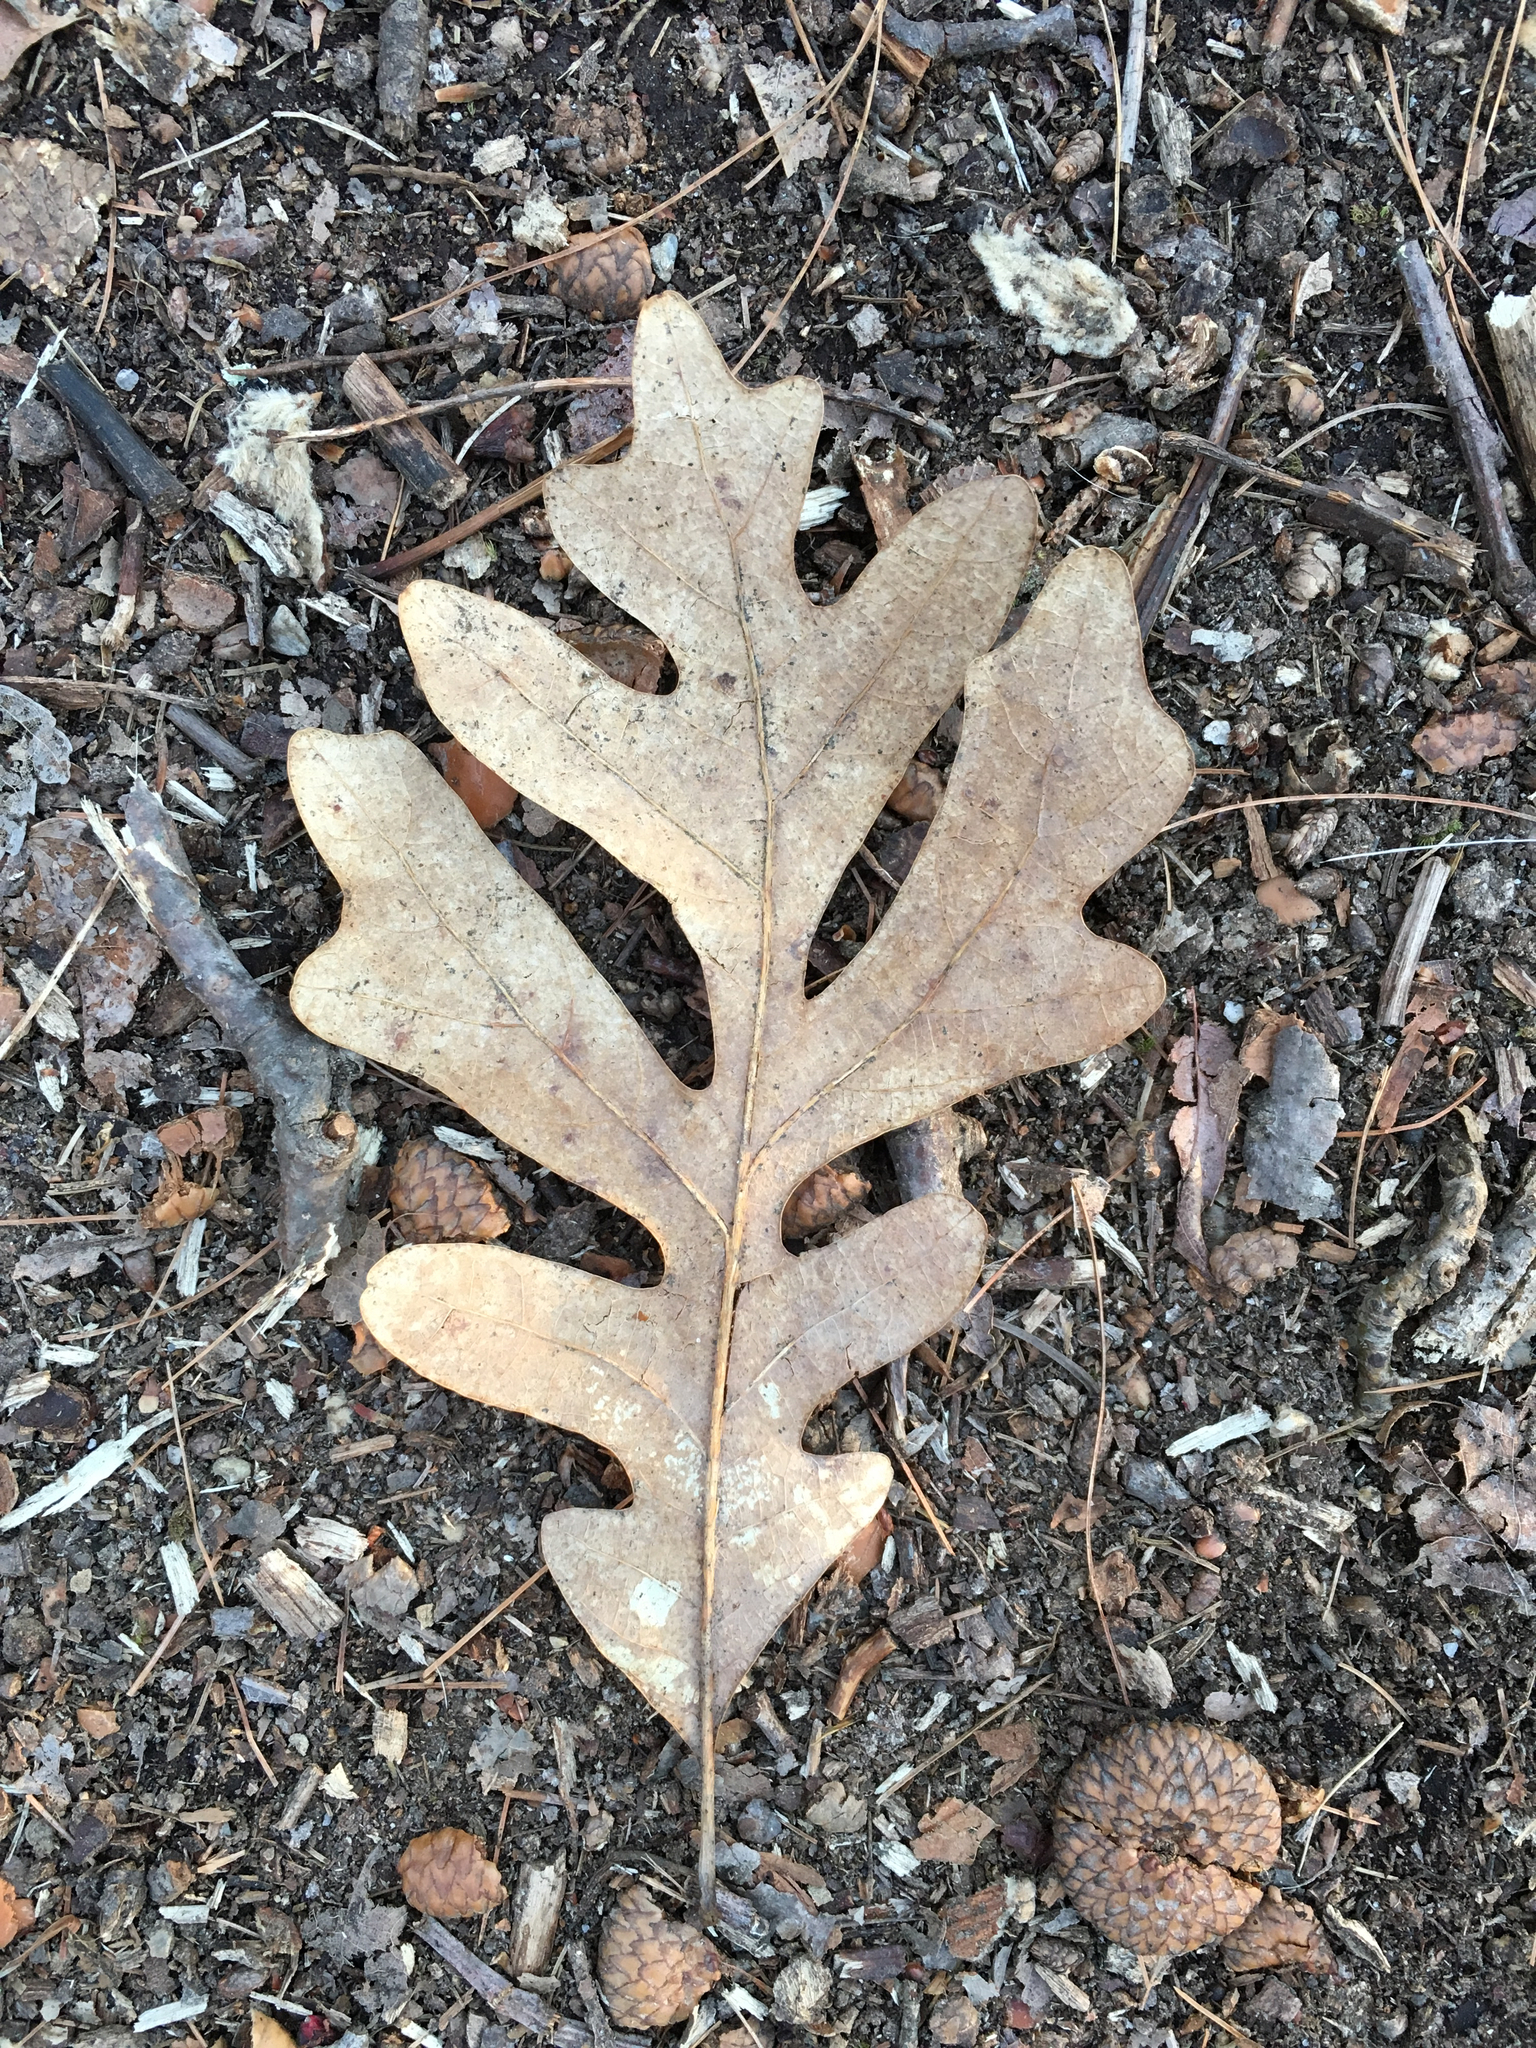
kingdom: Plantae
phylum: Tracheophyta
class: Magnoliopsida
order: Fagales
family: Fagaceae
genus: Quercus
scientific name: Quercus alba
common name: White oak
